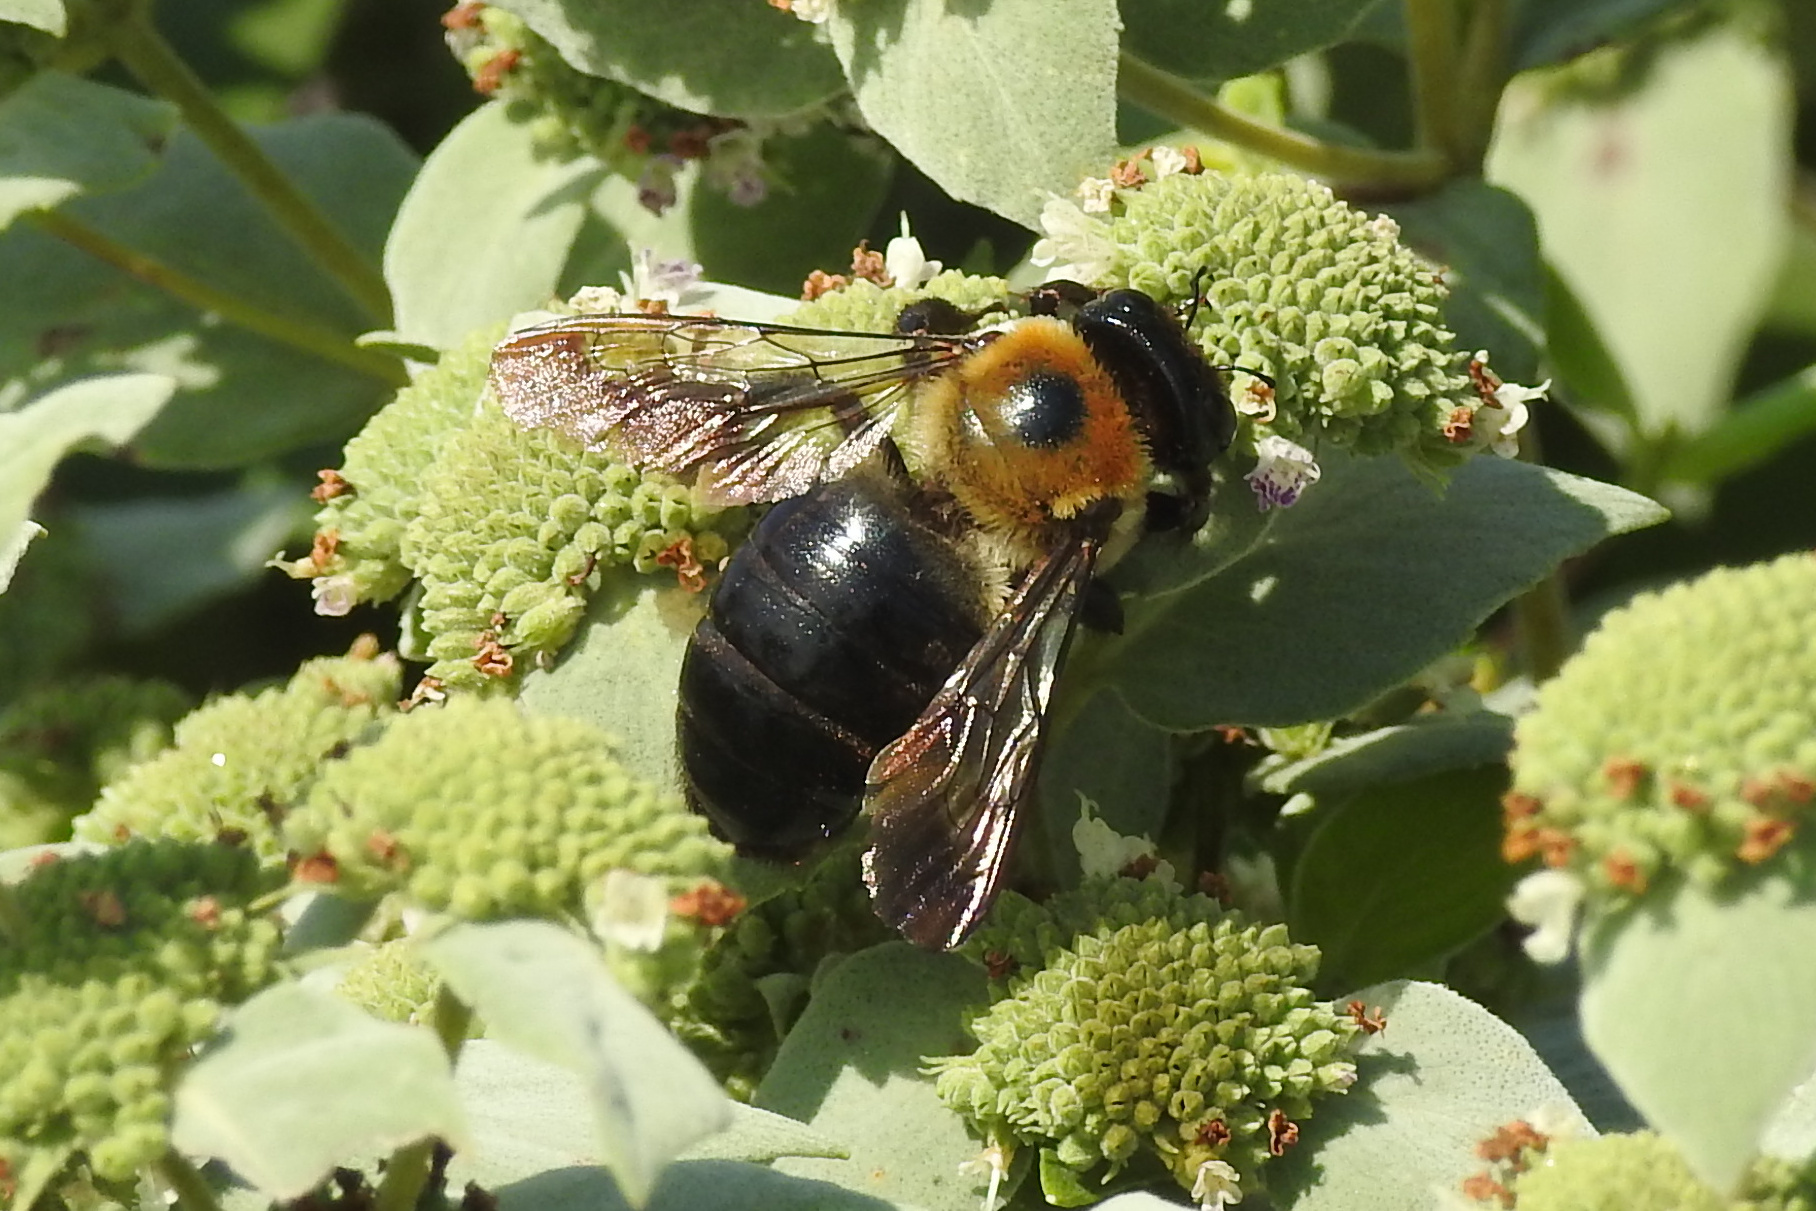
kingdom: Animalia
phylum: Arthropoda
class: Insecta
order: Hymenoptera
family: Apidae
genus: Xylocopa
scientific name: Xylocopa virginica
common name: Carpenter bee
